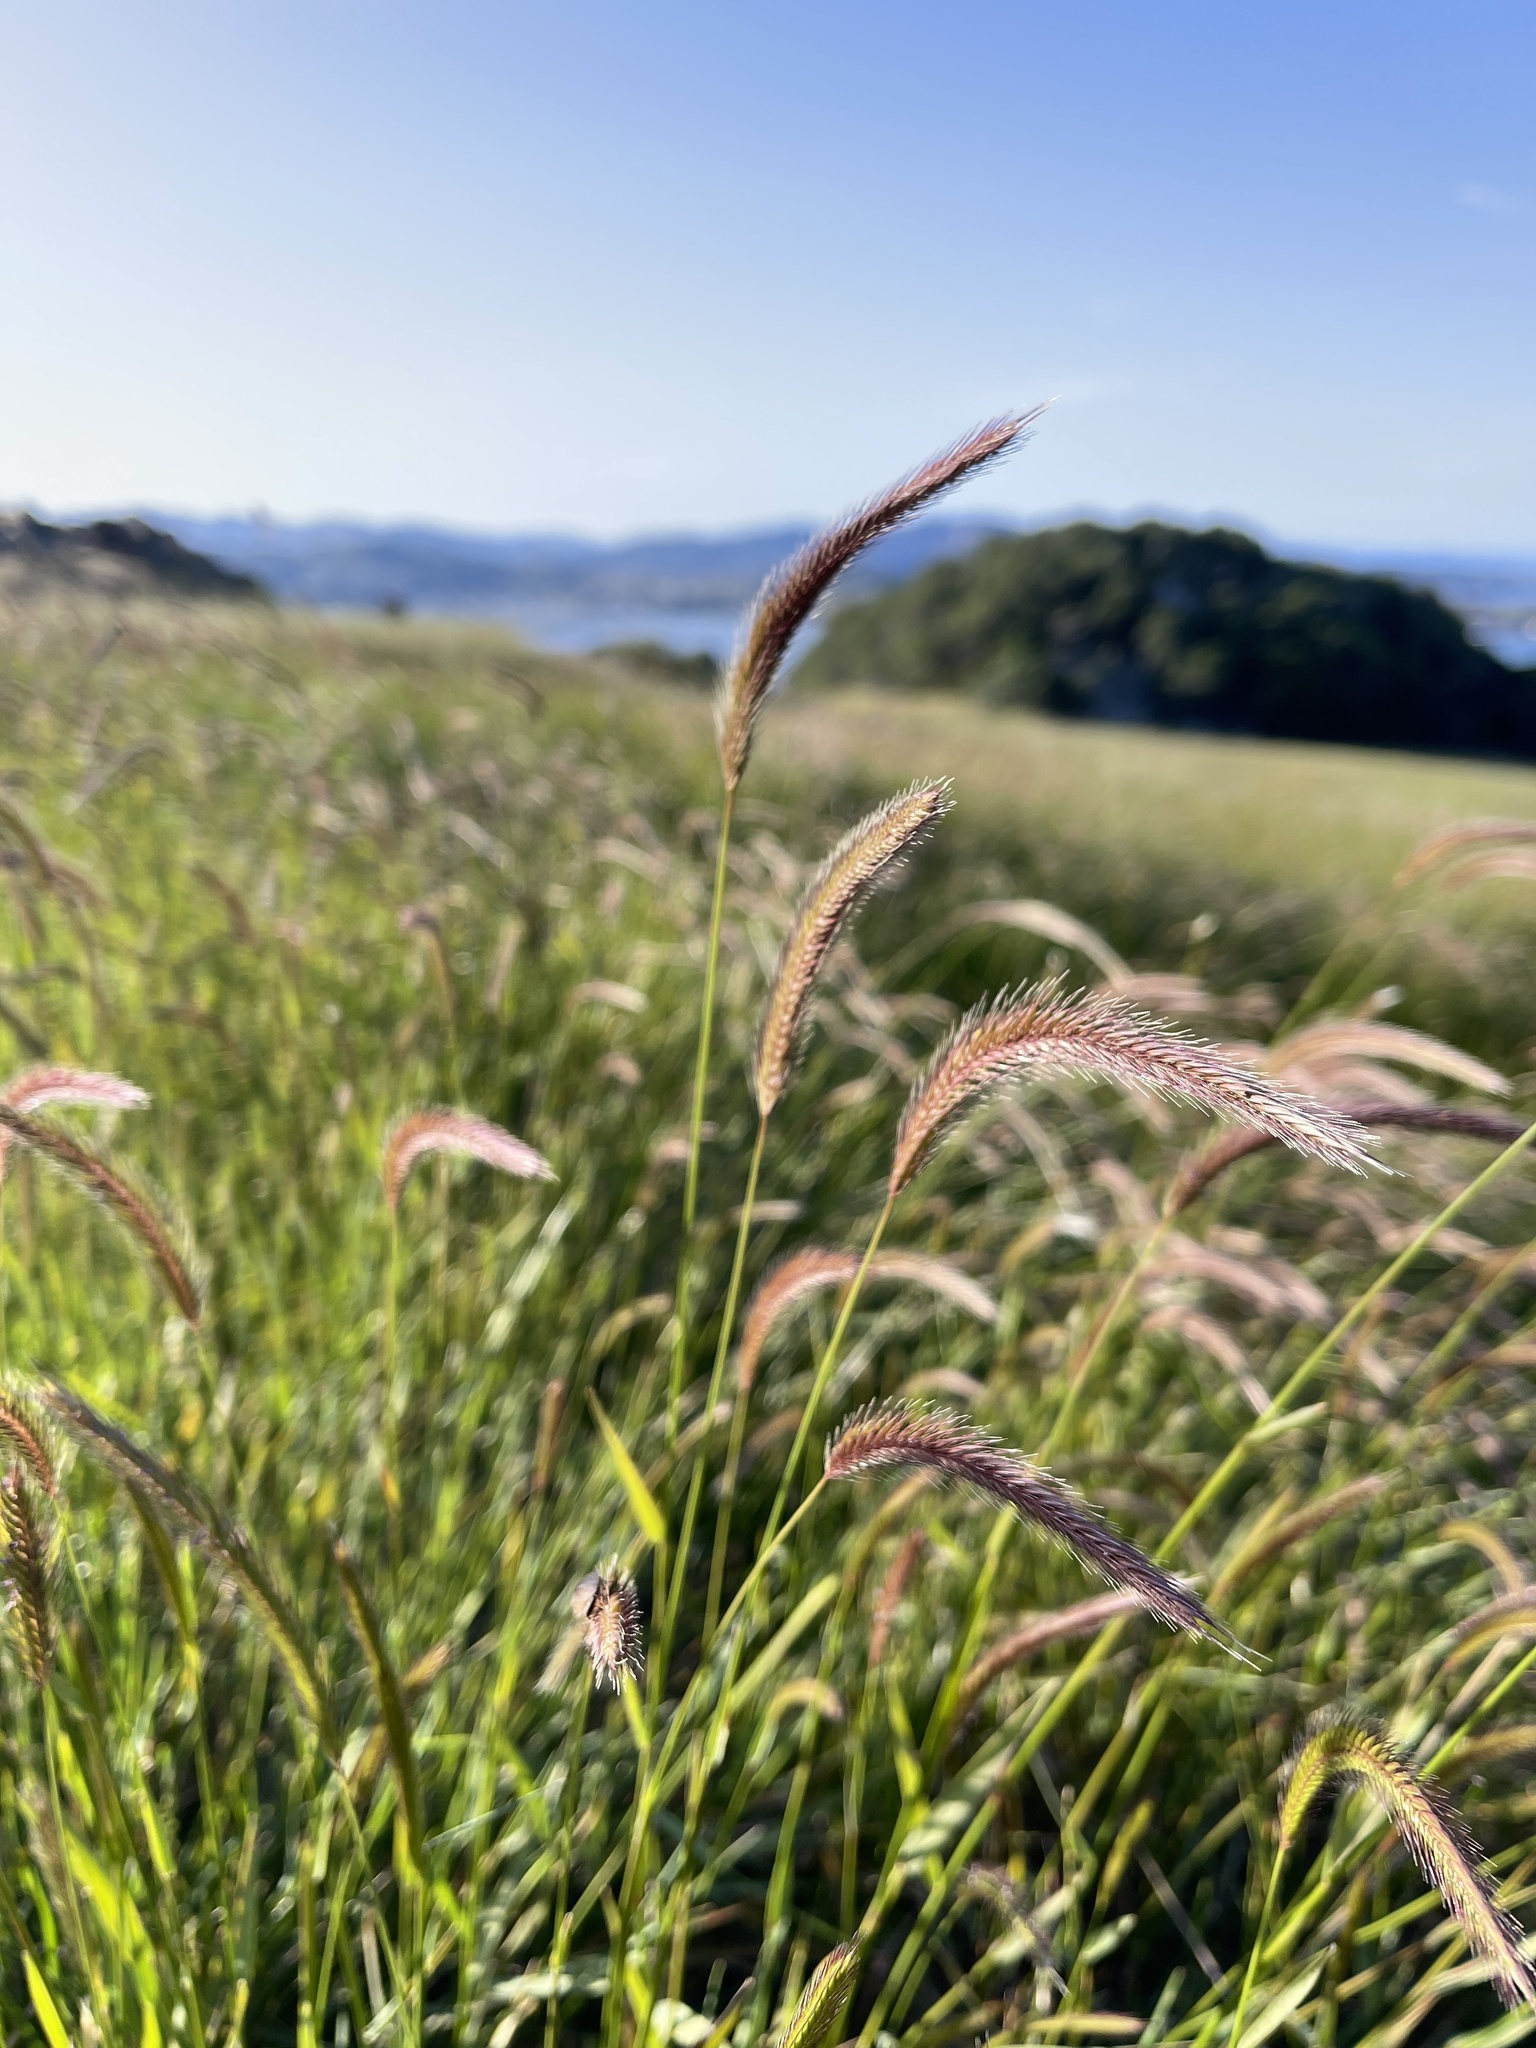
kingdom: Plantae
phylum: Tracheophyta
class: Liliopsida
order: Poales
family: Poaceae
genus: Hordeum
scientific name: Hordeum brachyantherum
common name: Meadow barley
